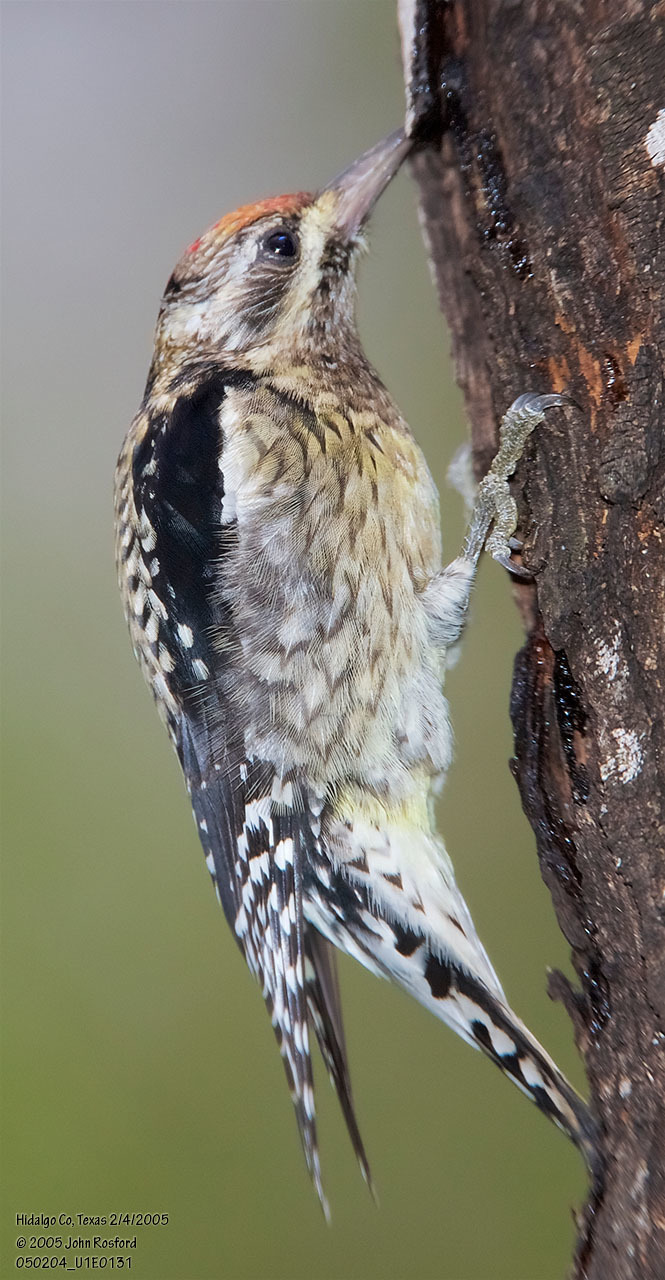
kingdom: Animalia
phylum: Chordata
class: Aves
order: Piciformes
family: Picidae
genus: Sphyrapicus
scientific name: Sphyrapicus varius
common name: Yellow-bellied sapsucker
